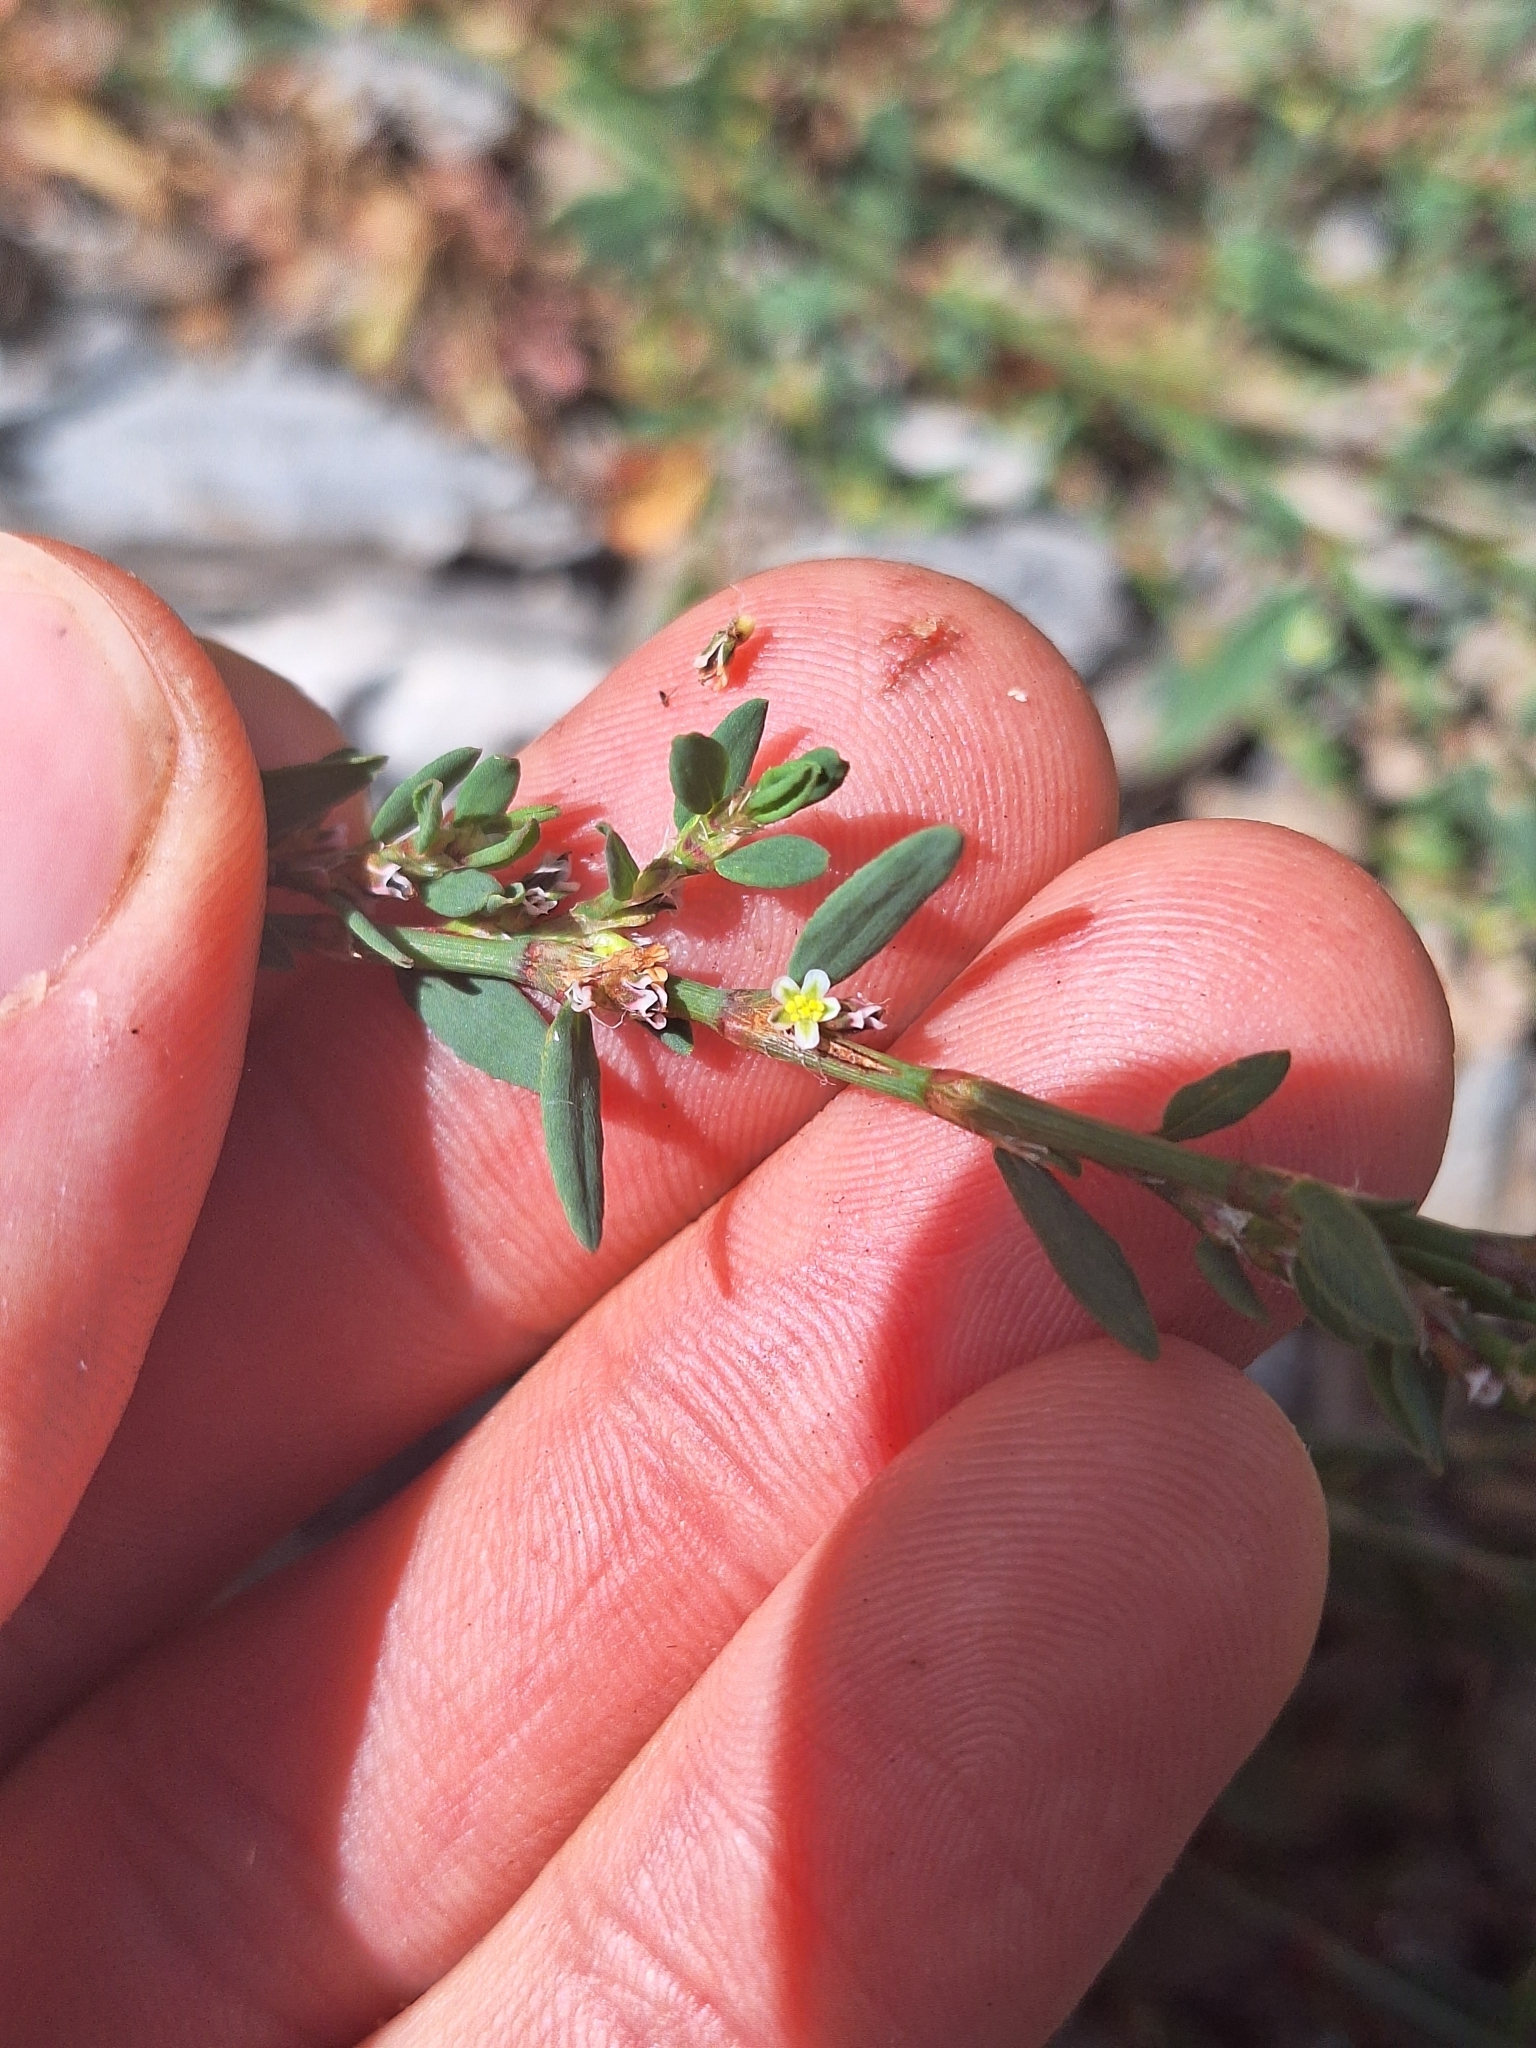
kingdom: Plantae
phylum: Tracheophyta
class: Magnoliopsida
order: Caryophyllales
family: Polygonaceae
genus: Polygonum
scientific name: Polygonum aviculare
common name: Prostrate knotweed
